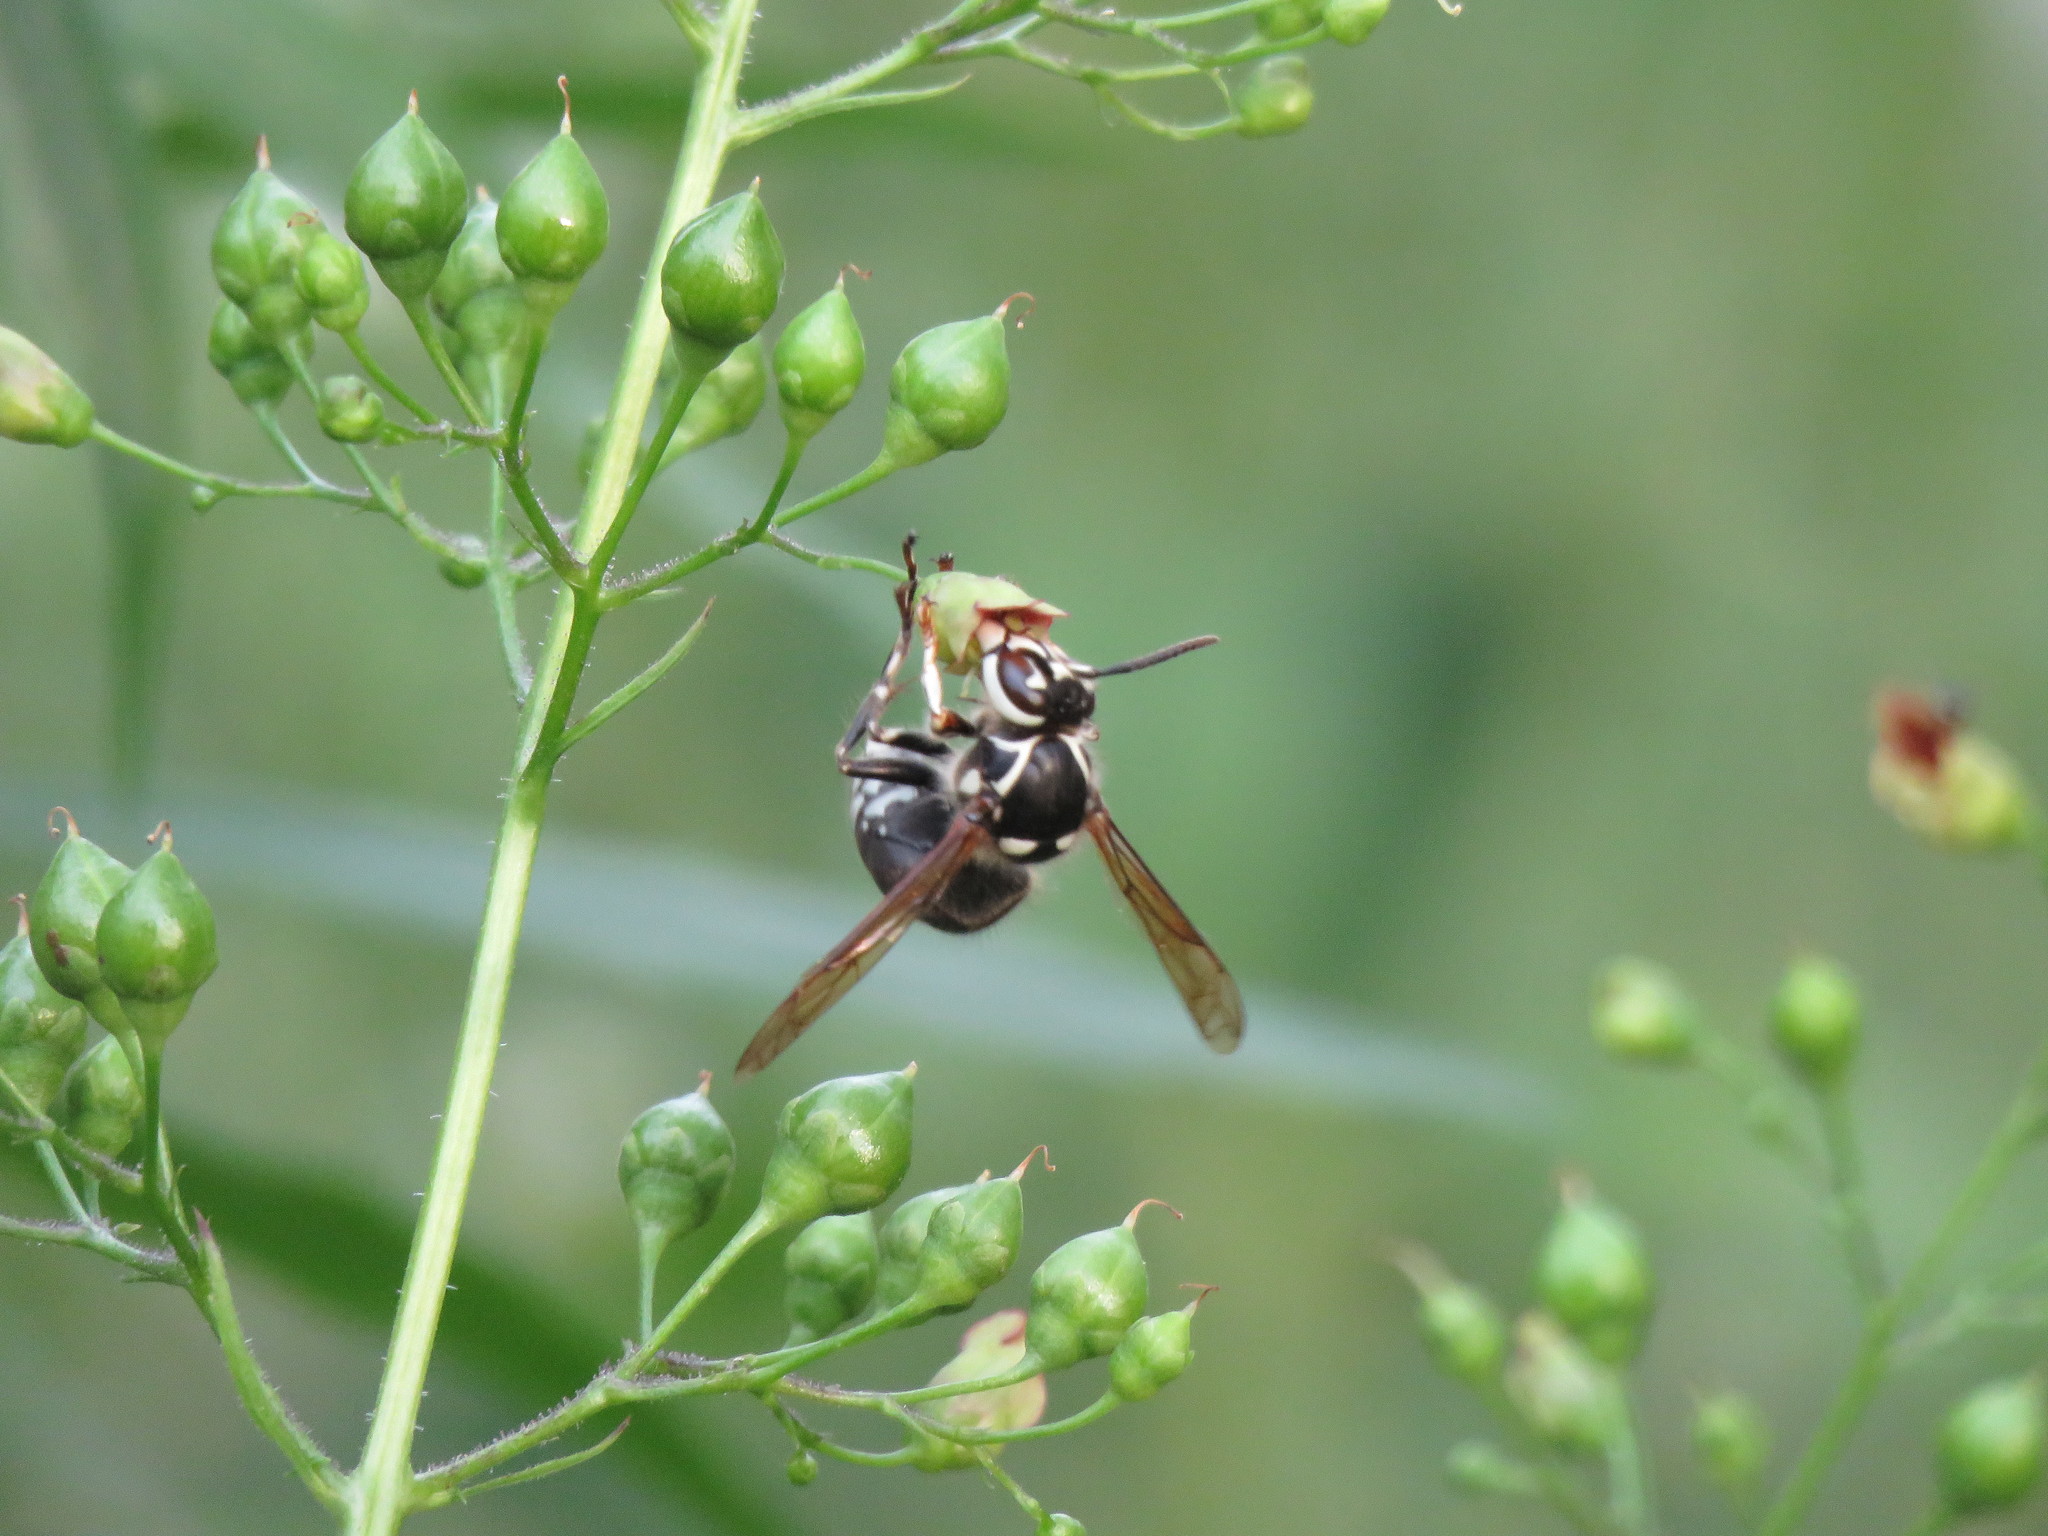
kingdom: Animalia
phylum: Arthropoda
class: Insecta
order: Hymenoptera
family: Vespidae
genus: Dolichovespula
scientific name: Dolichovespula maculata
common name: Bald-faced hornet
